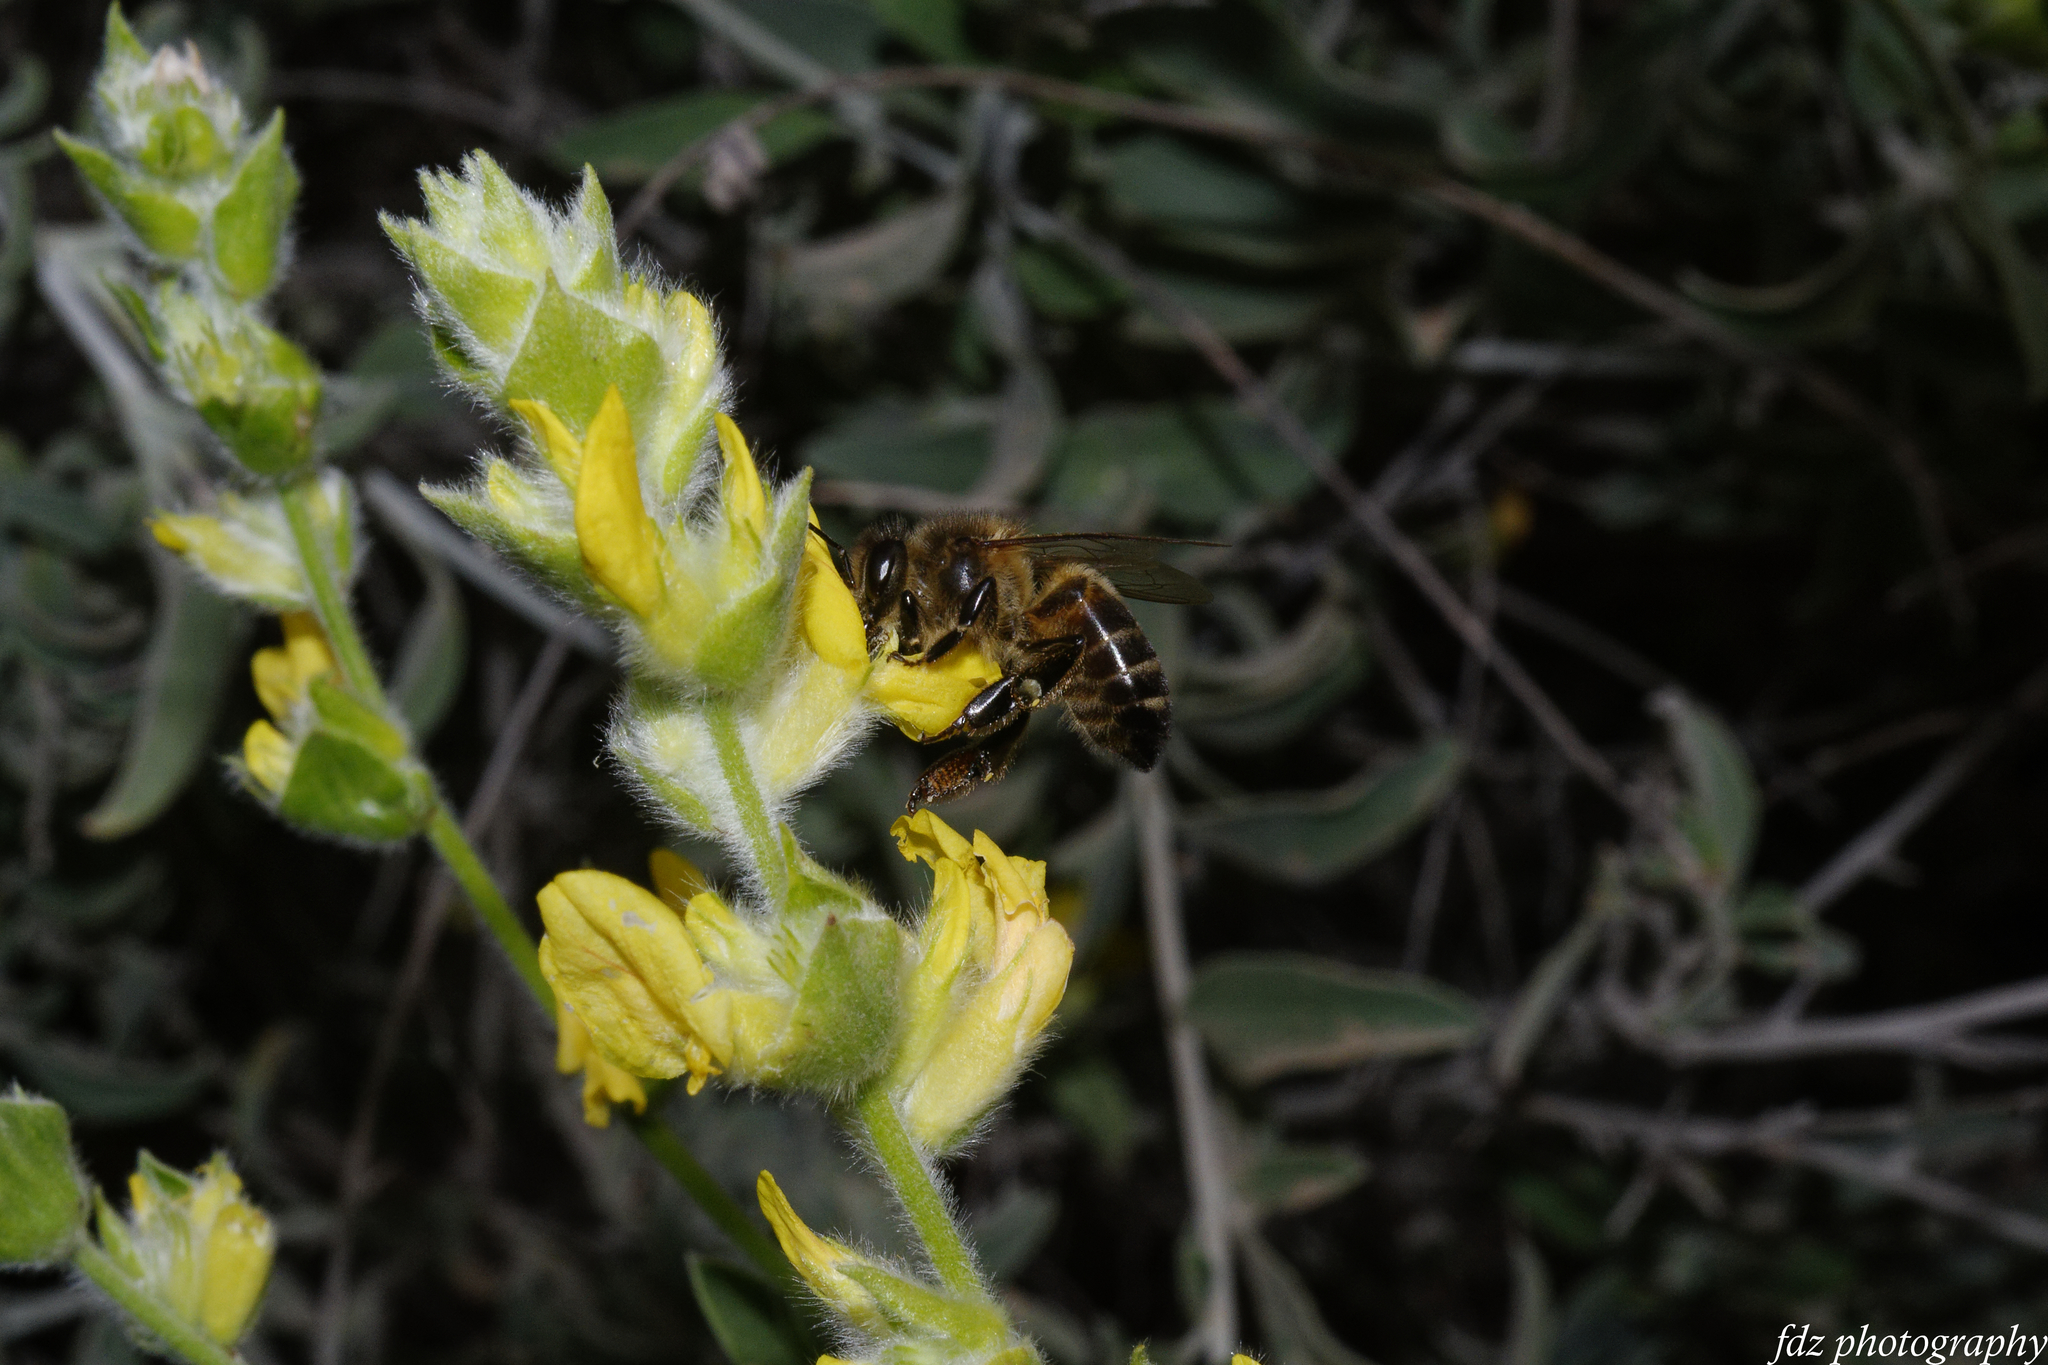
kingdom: Animalia
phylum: Arthropoda
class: Insecta
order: Hymenoptera
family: Apidae
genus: Apis
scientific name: Apis mellifera
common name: Honey bee
